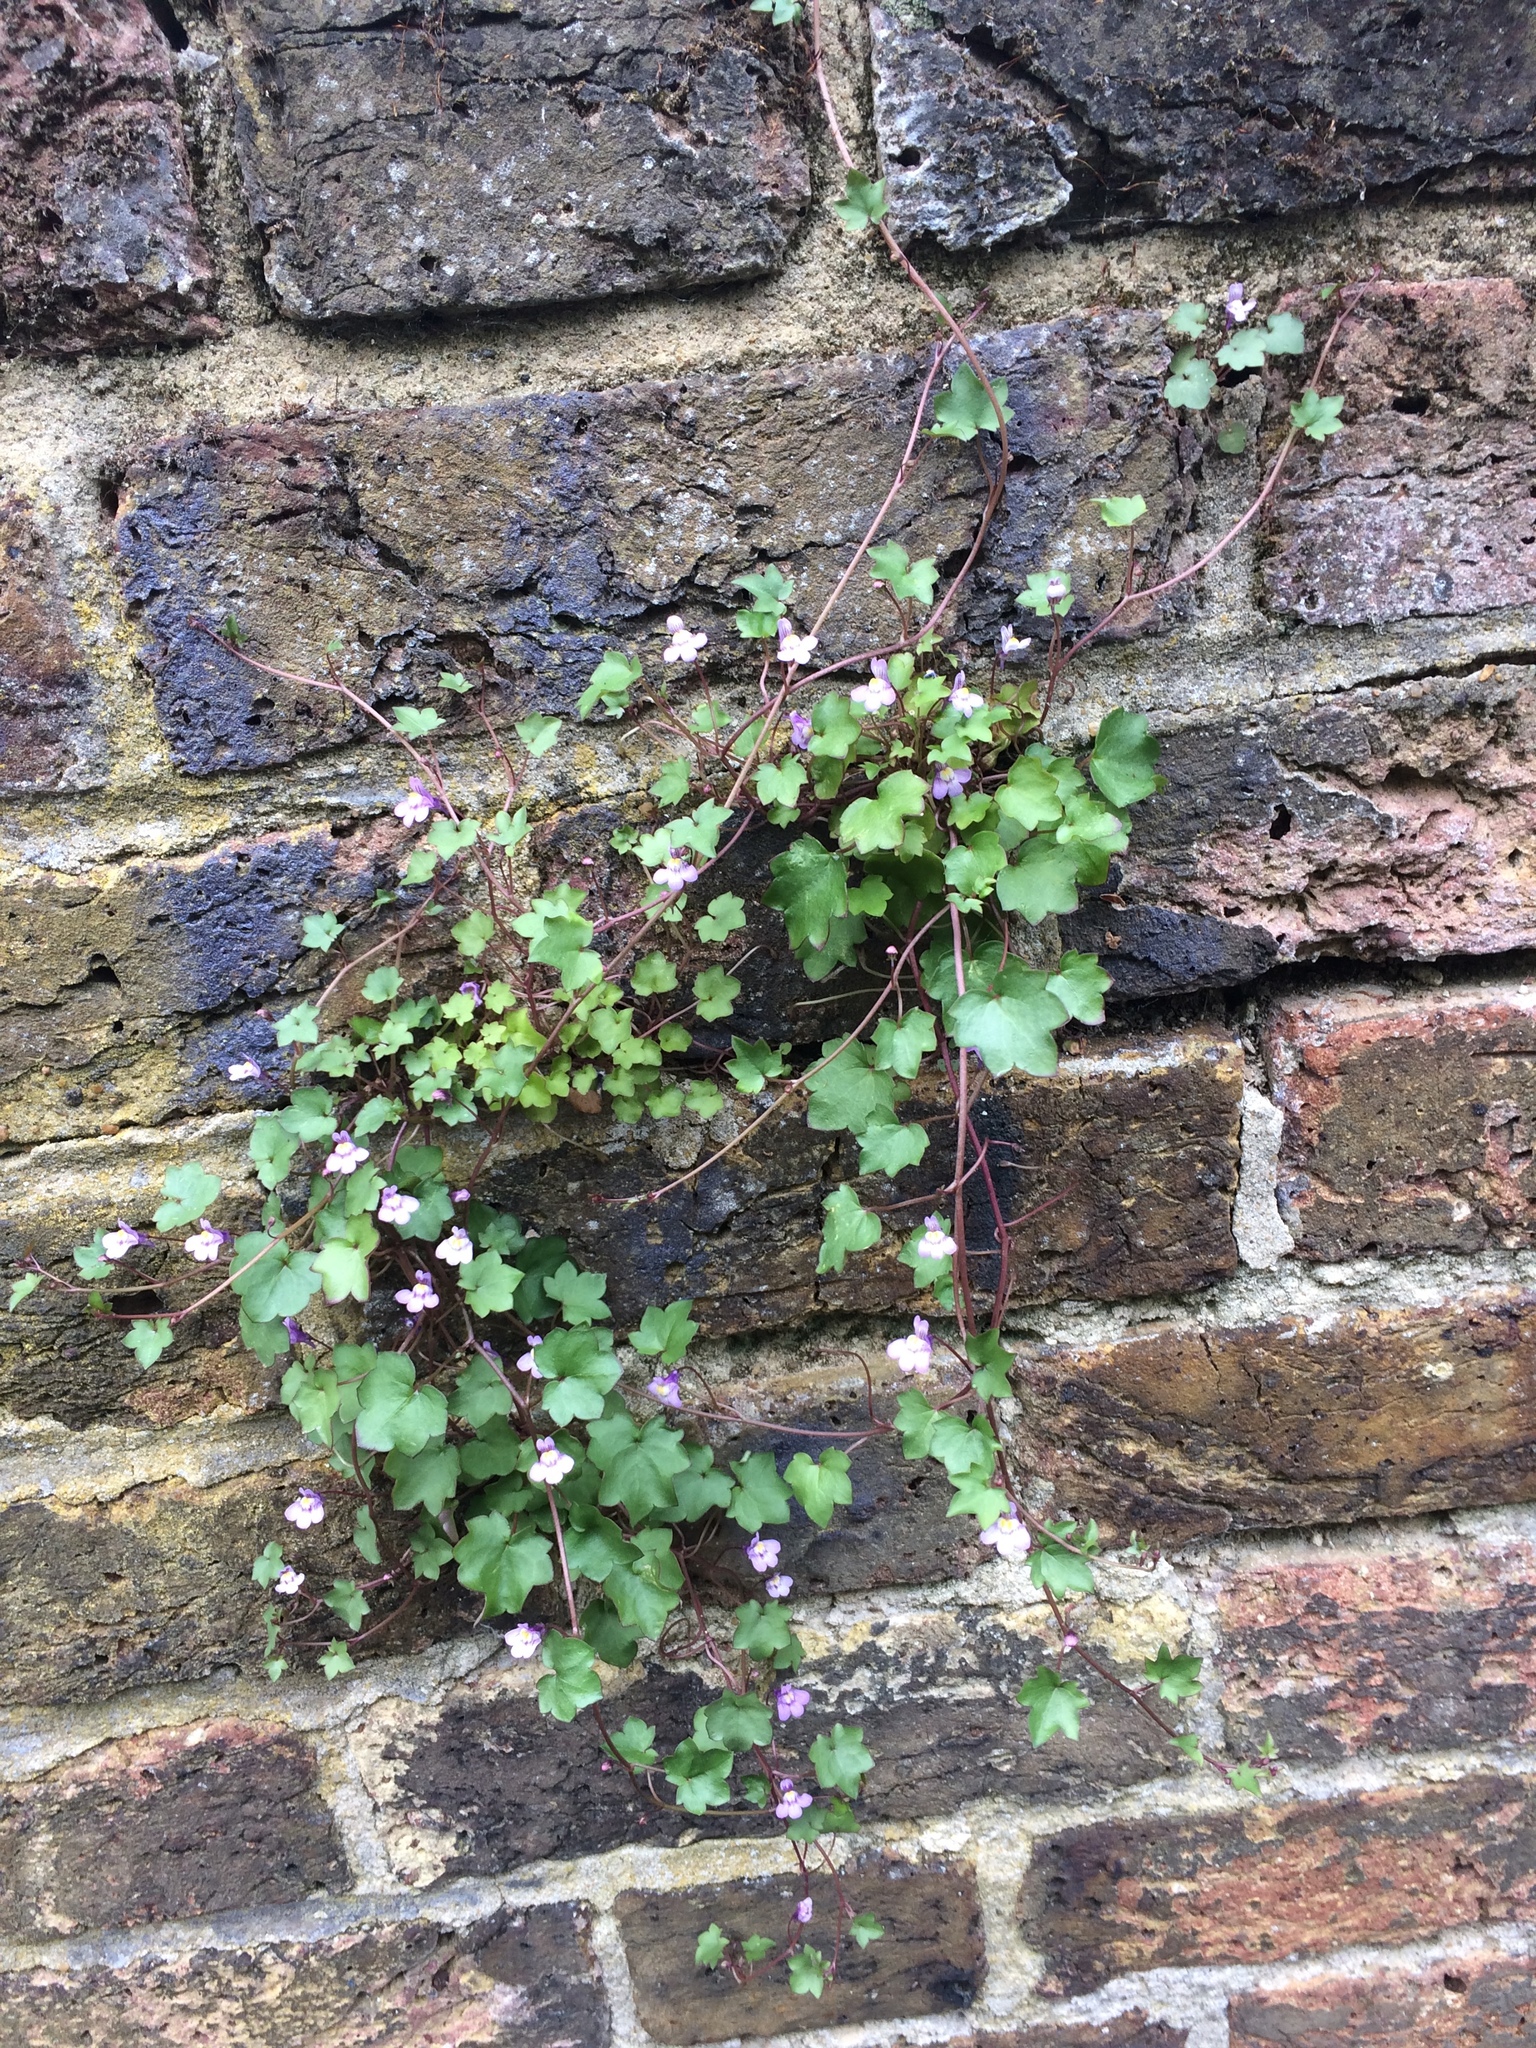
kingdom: Plantae
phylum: Tracheophyta
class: Magnoliopsida
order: Lamiales
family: Plantaginaceae
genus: Cymbalaria
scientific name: Cymbalaria muralis
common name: Ivy-leaved toadflax
